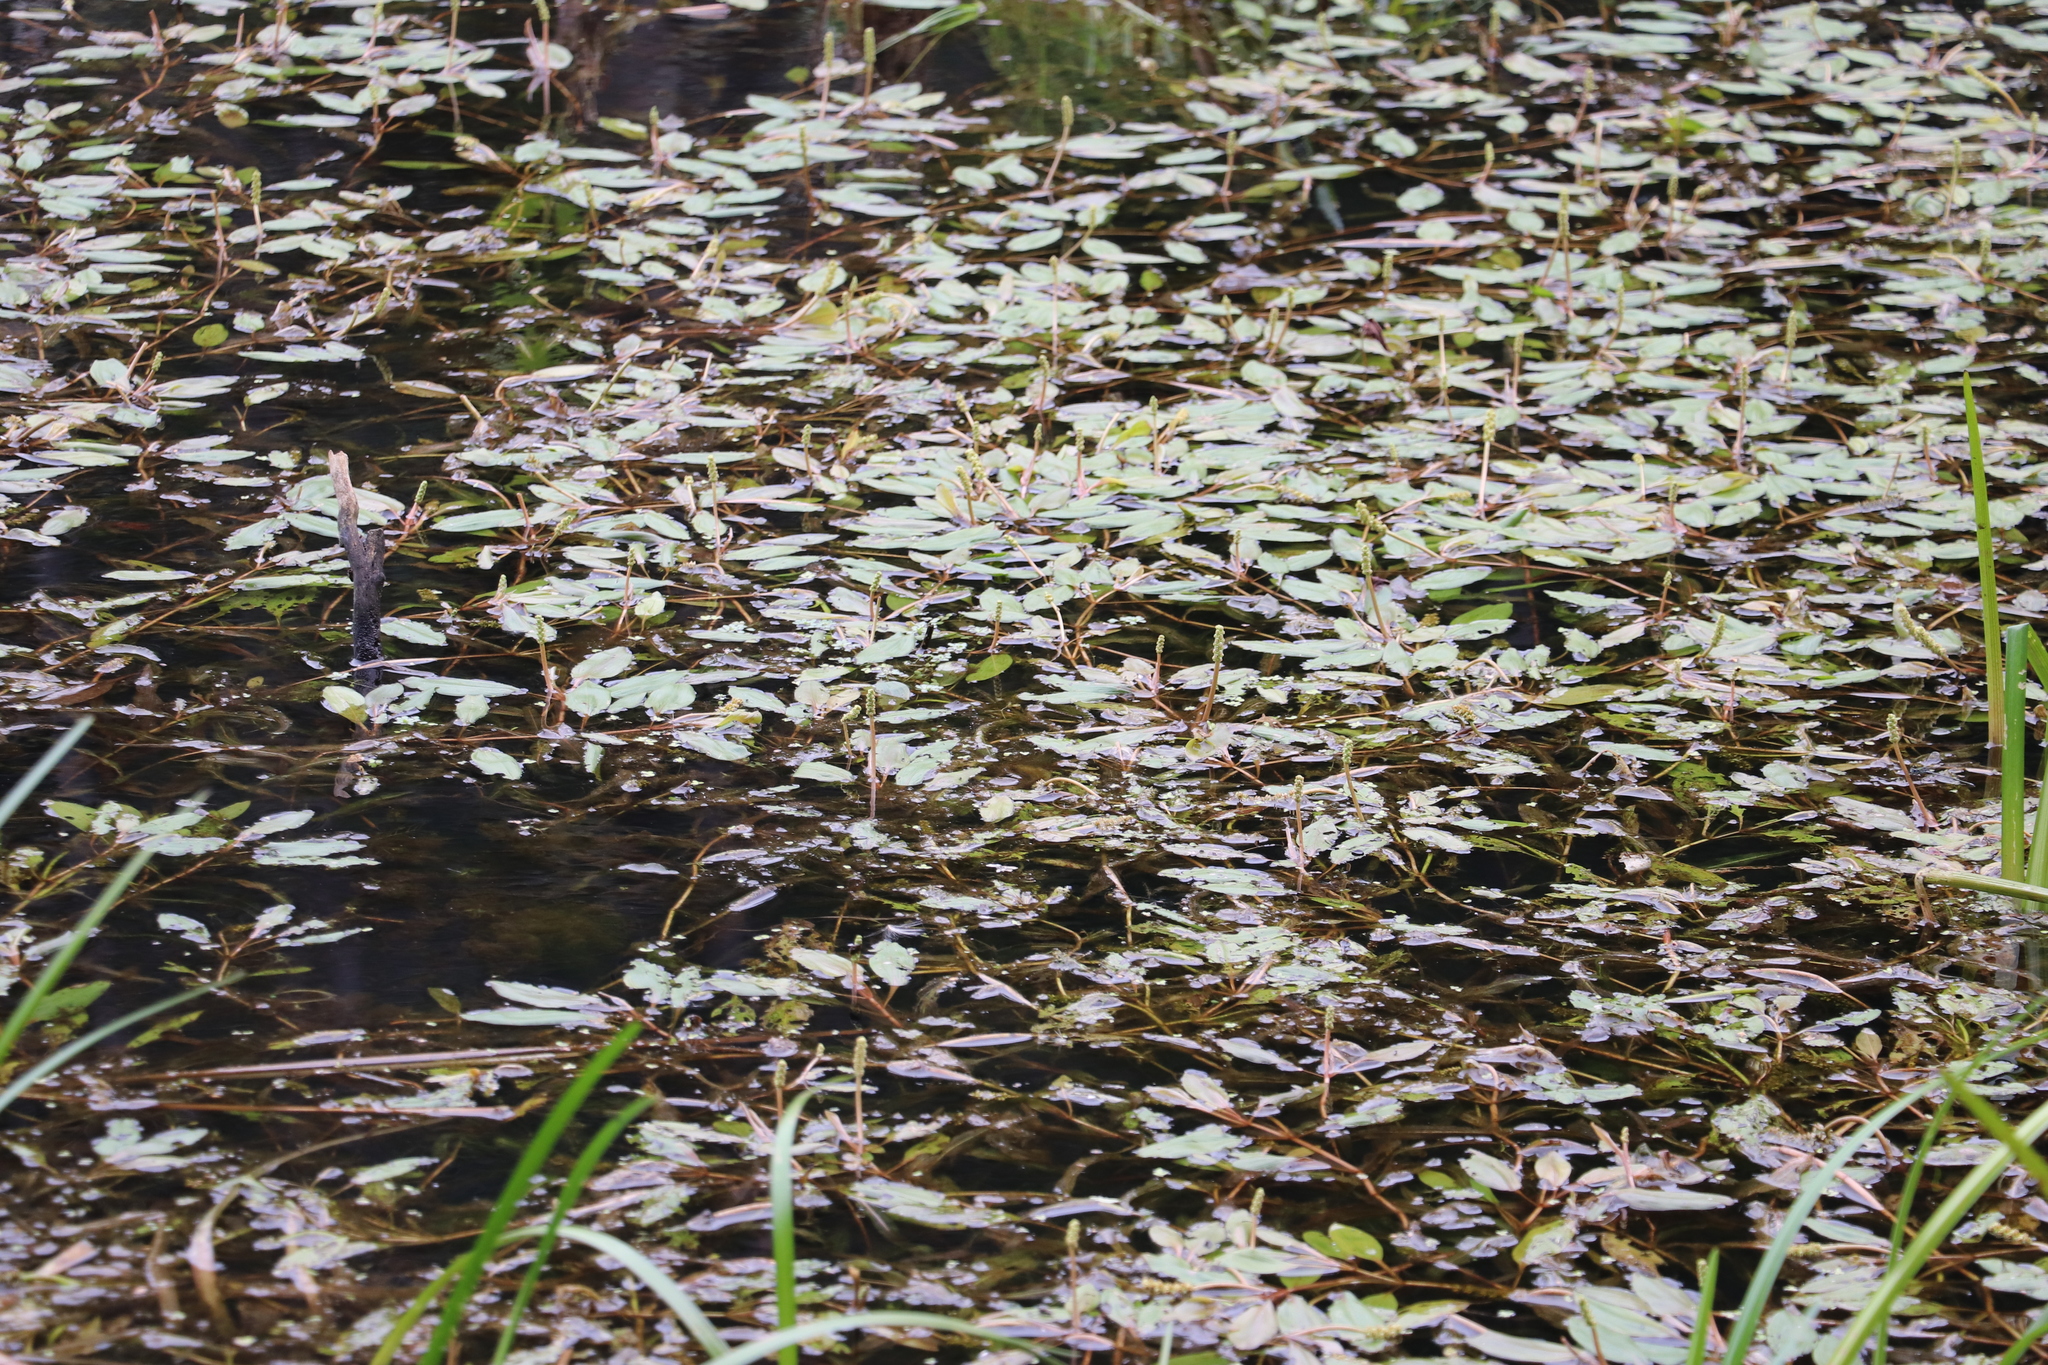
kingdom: Plantae
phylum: Tracheophyta
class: Magnoliopsida
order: Caryophyllales
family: Polygonaceae
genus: Persicaria
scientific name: Persicaria amphibia
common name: Amphibious bistort
